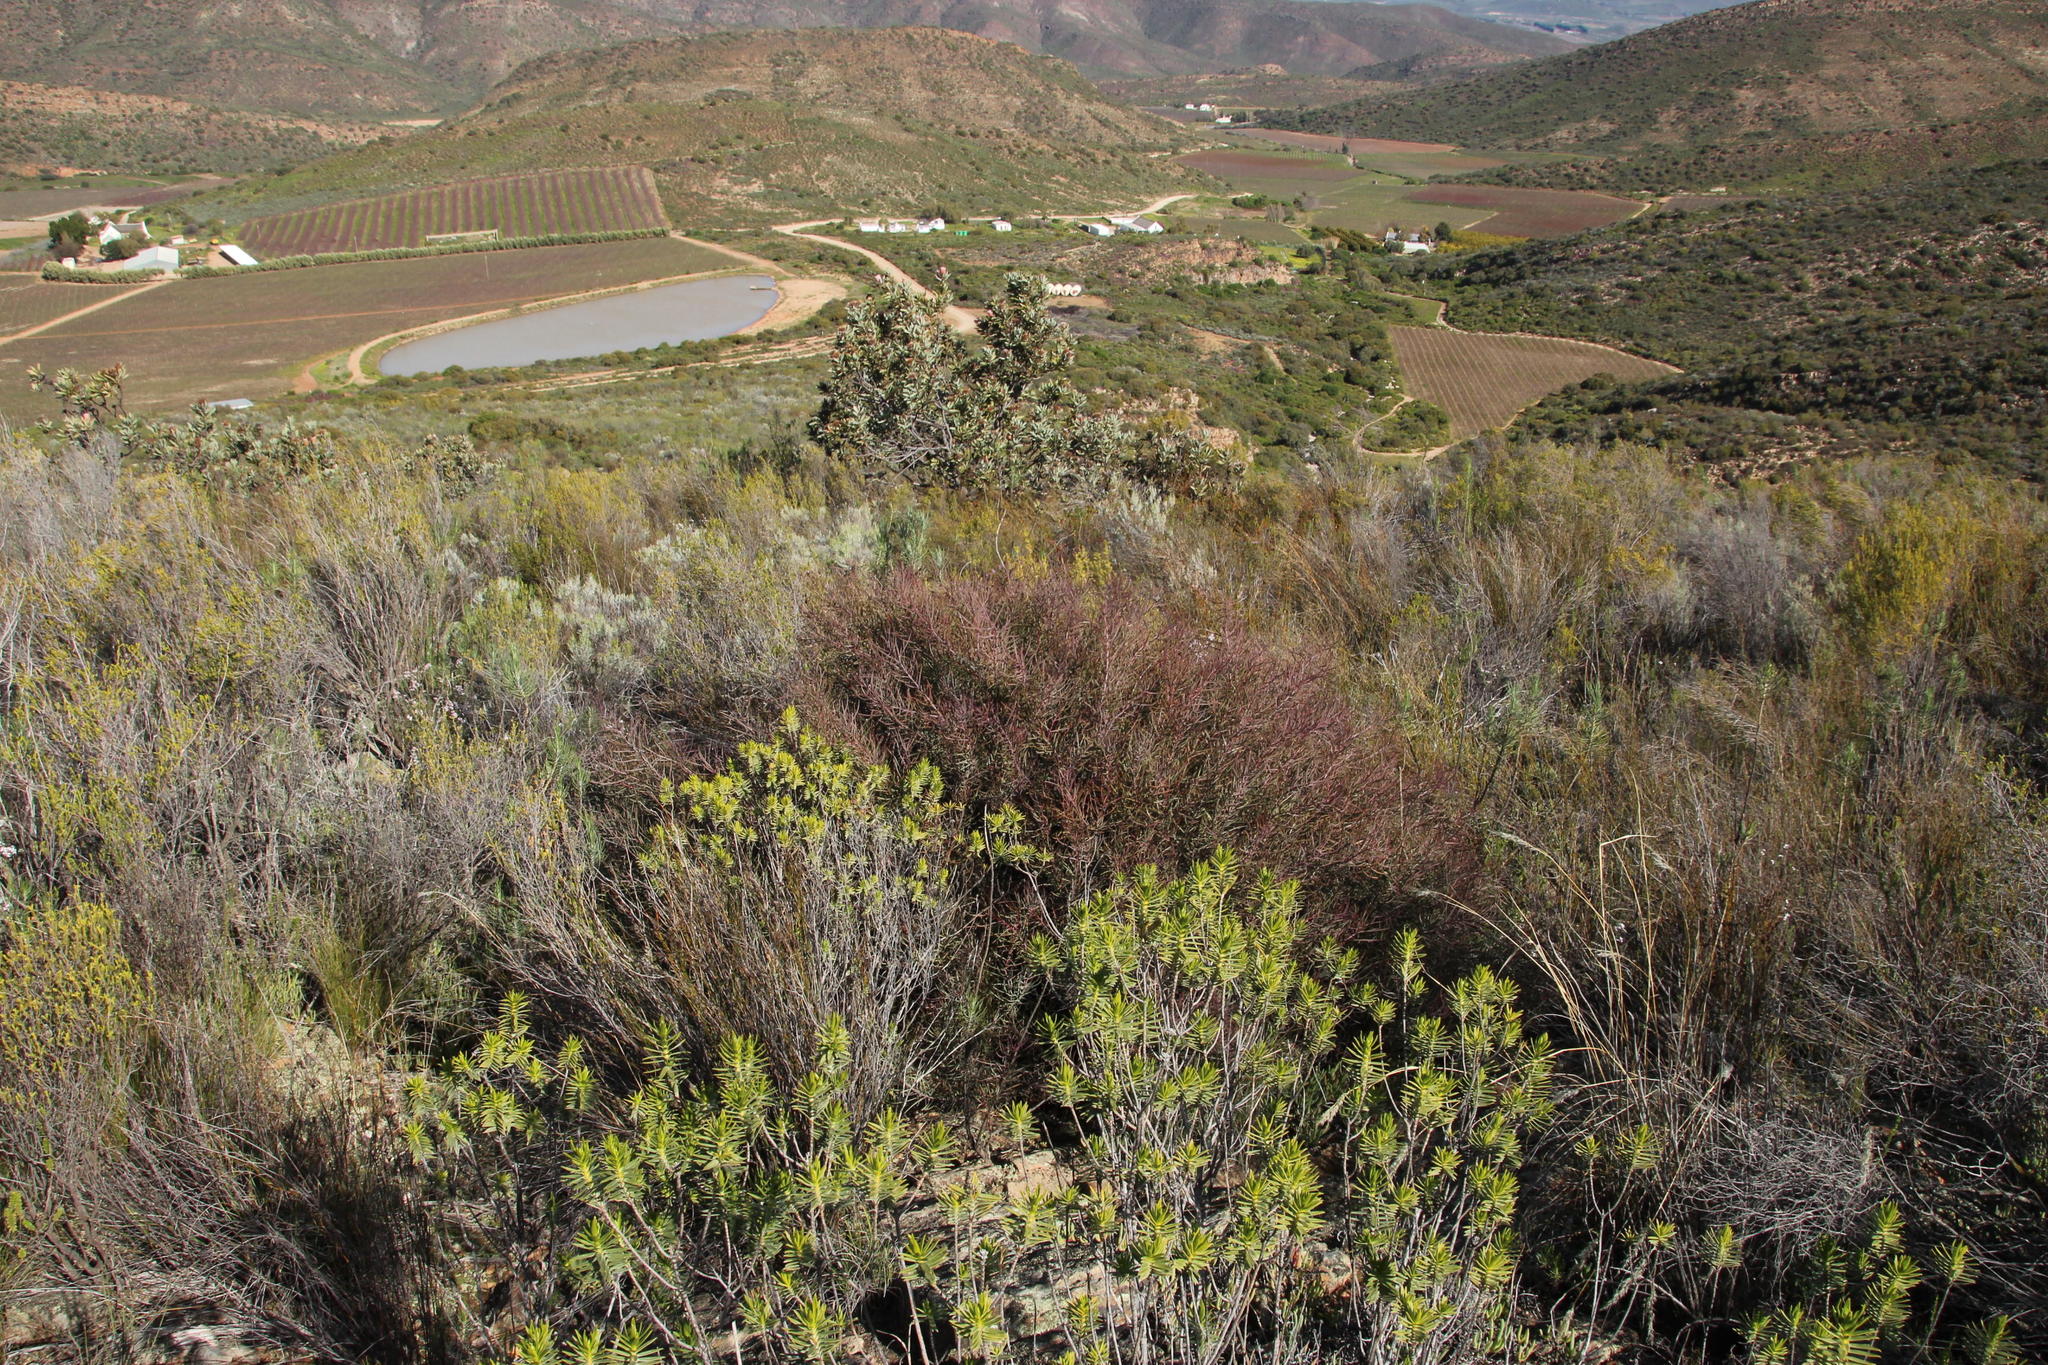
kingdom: Plantae
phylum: Tracheophyta
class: Magnoliopsida
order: Proteales
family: Proteaceae
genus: Protea
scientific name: Protea humiflora
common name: Patent-leaf sugarbush
